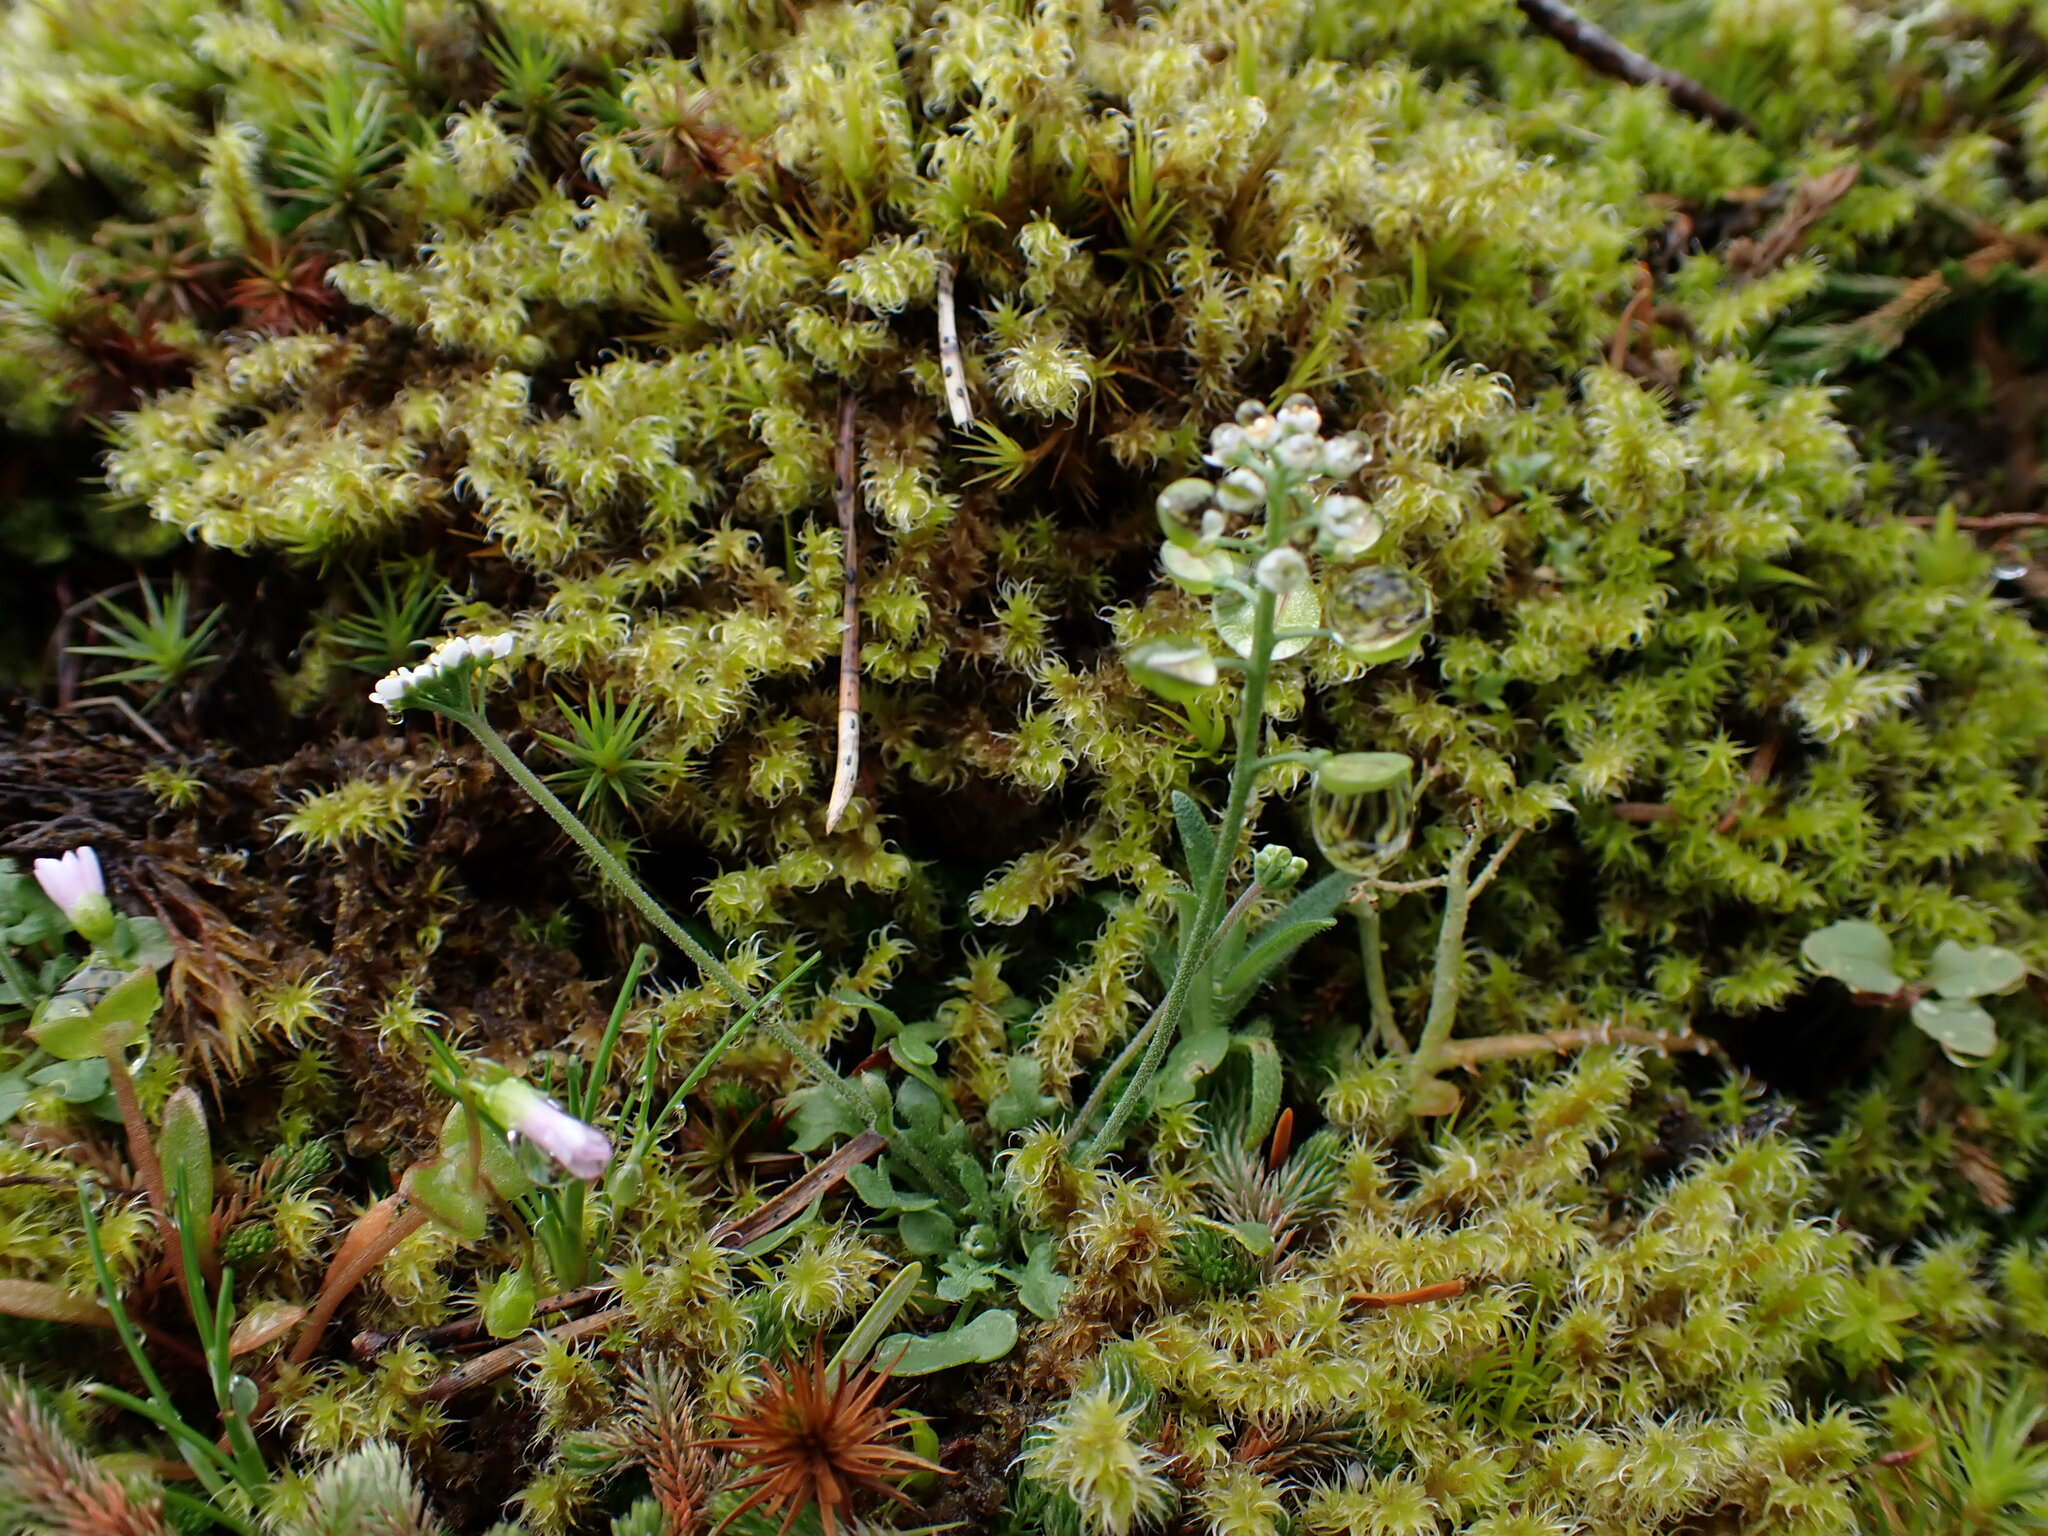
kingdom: Plantae
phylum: Tracheophyta
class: Magnoliopsida
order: Brassicales
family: Brassicaceae
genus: Teesdalia
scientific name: Teesdalia nudicaulis
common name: Shepherd's cress
